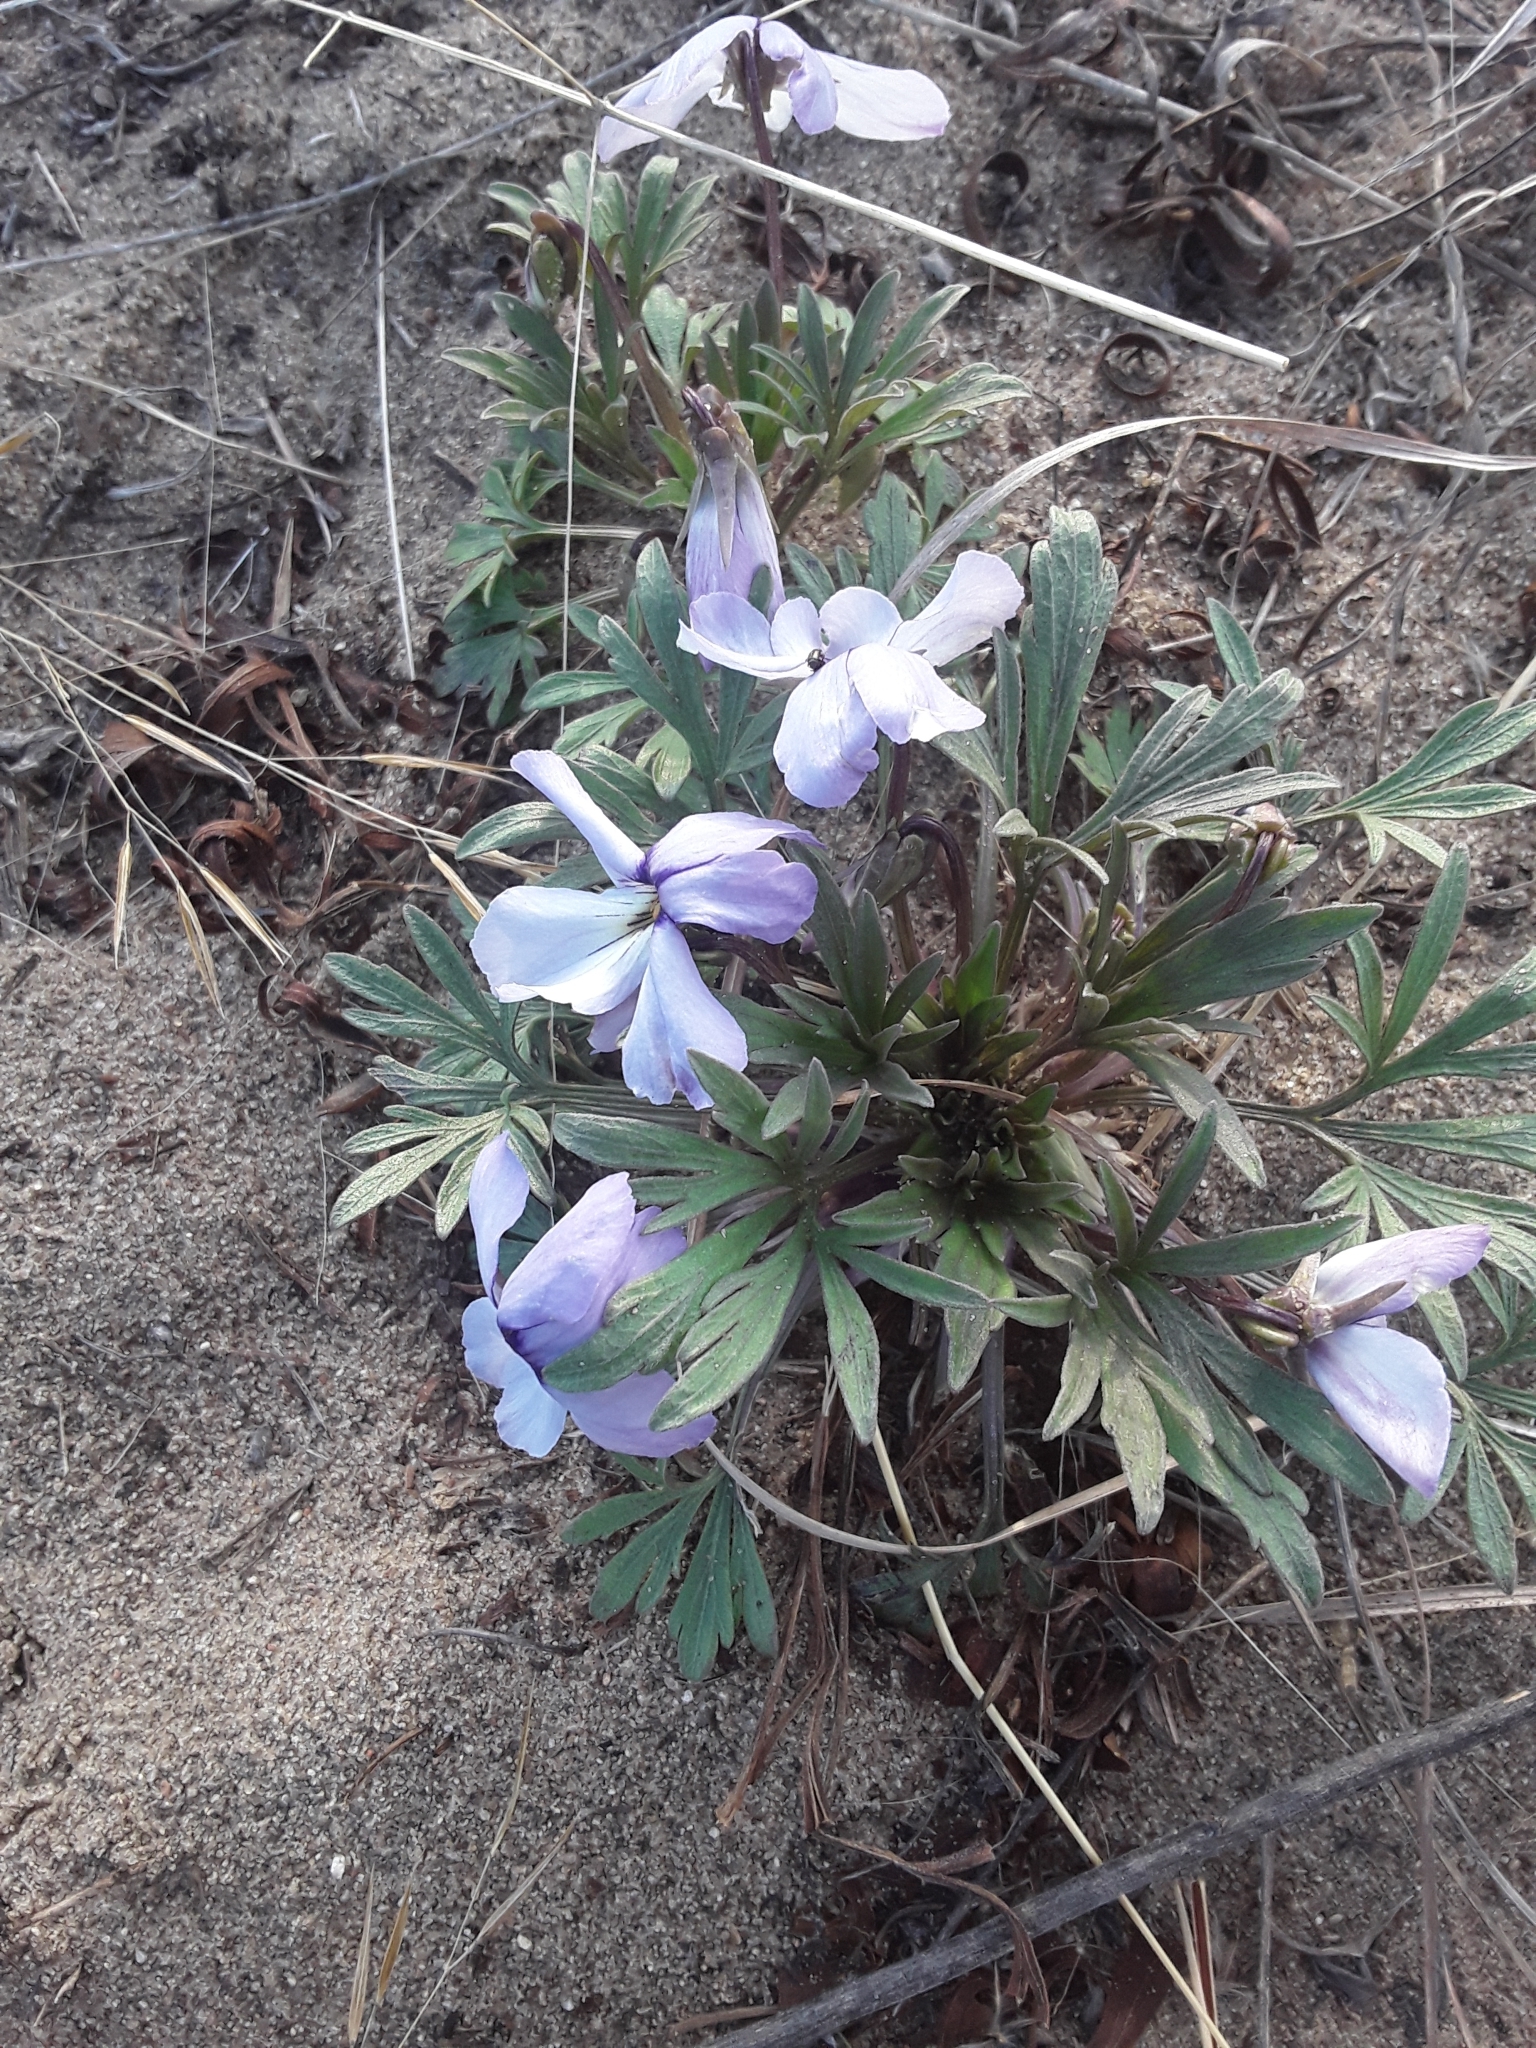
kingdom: Plantae
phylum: Tracheophyta
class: Magnoliopsida
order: Malpighiales
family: Violaceae
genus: Viola
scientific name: Viola pedata
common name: Pansy violet
